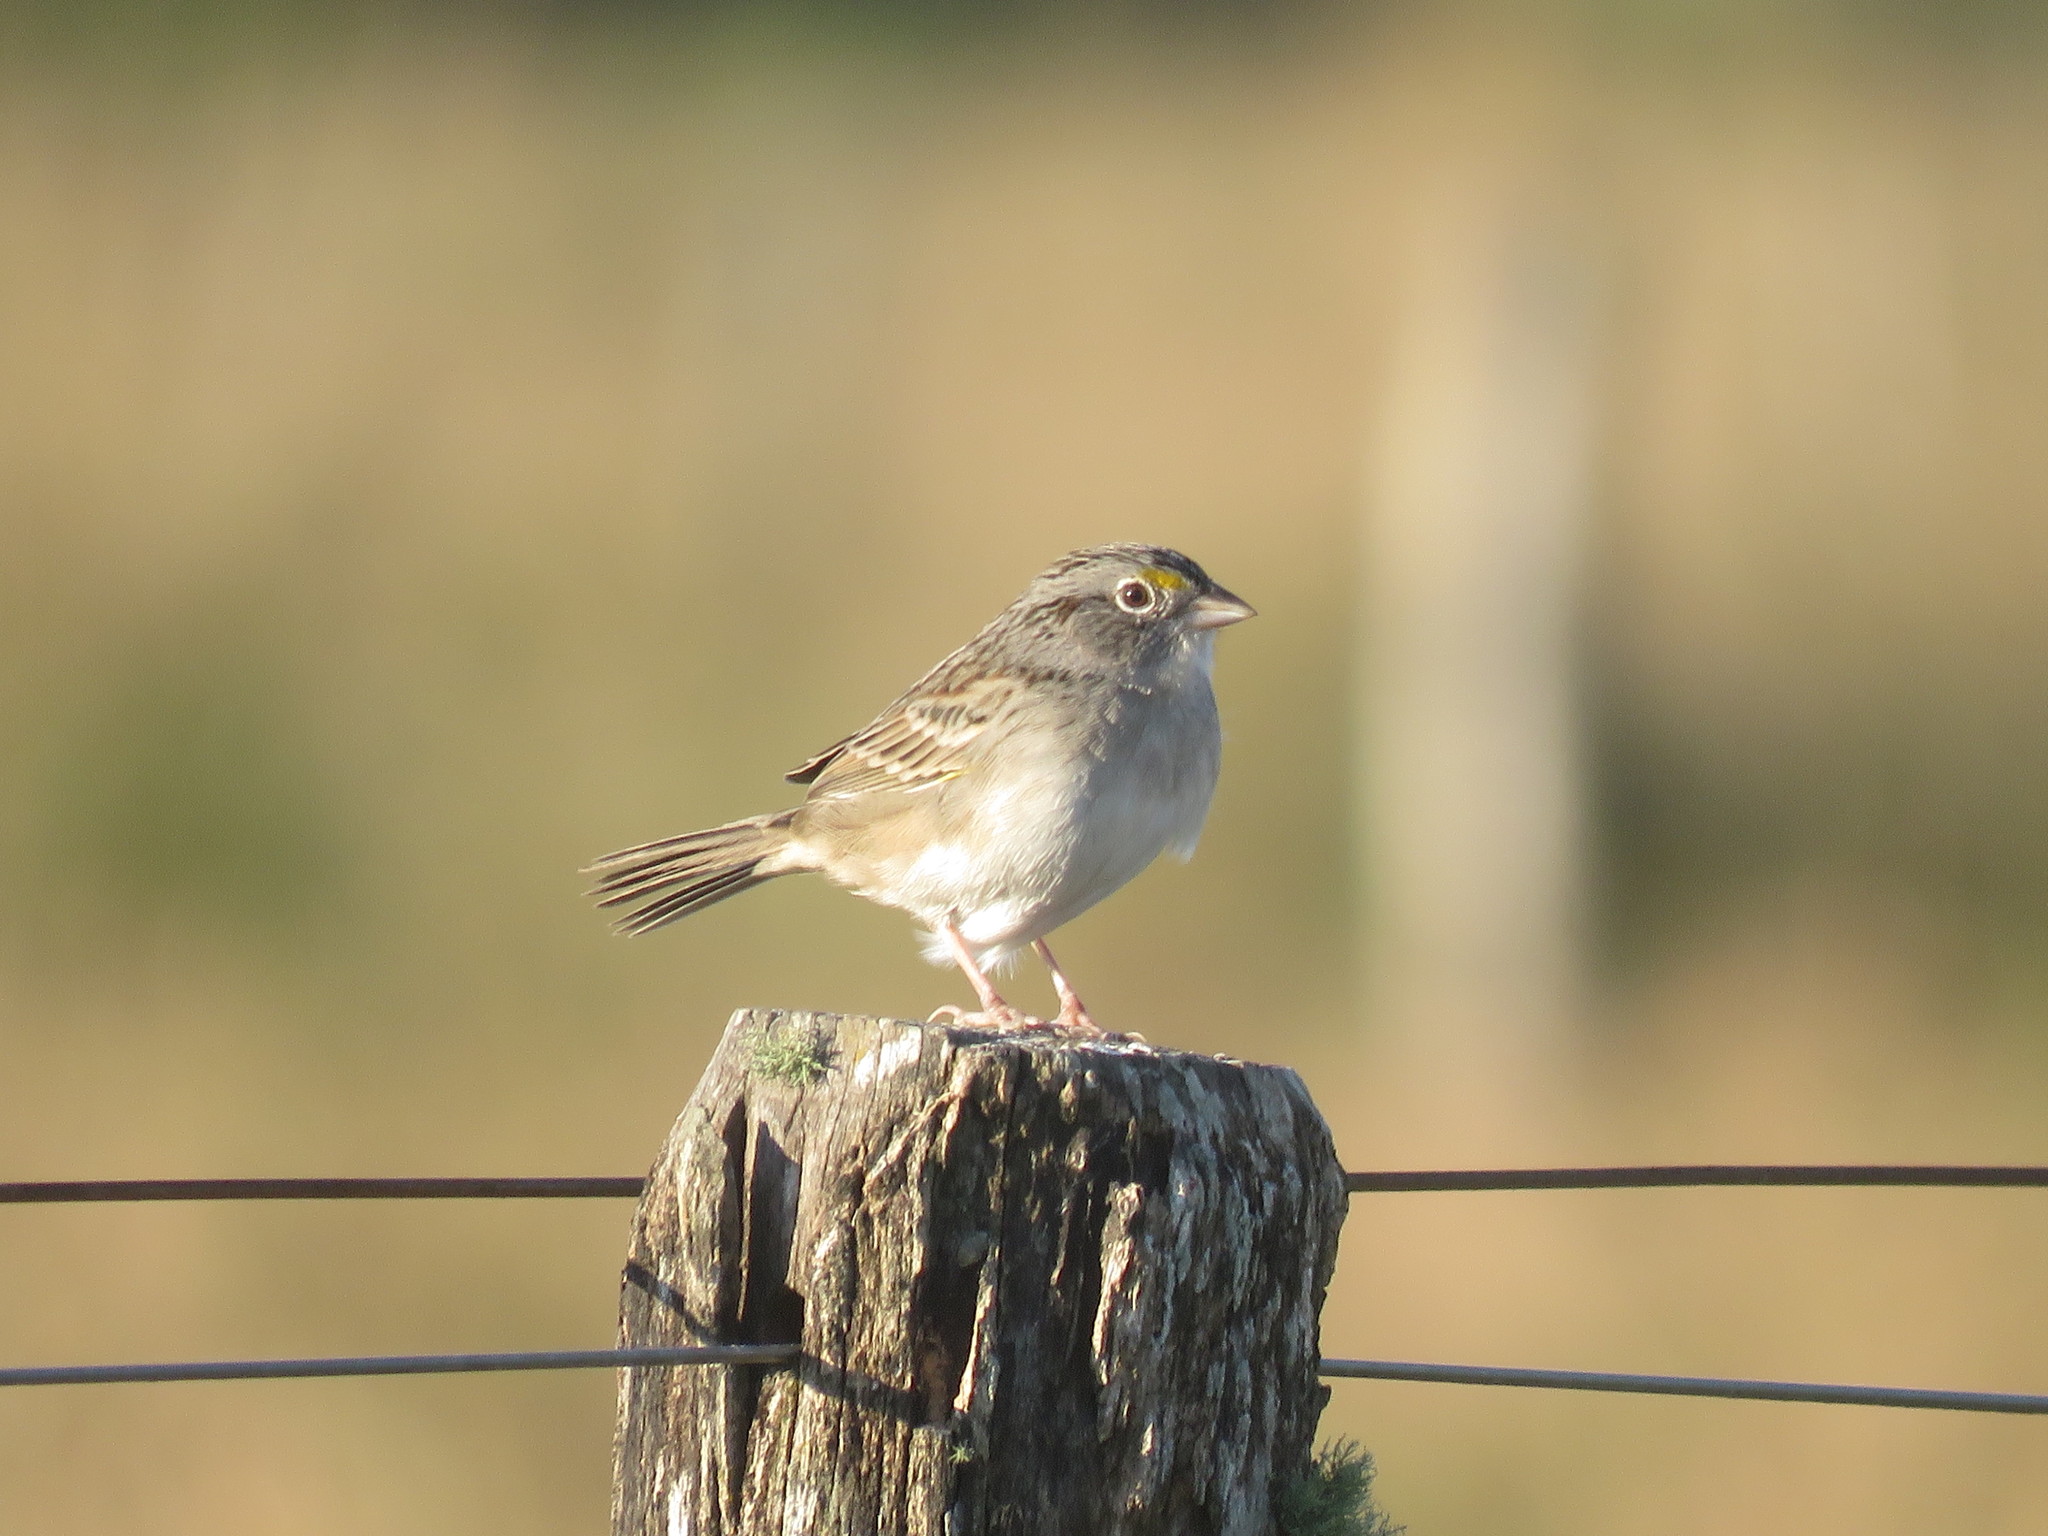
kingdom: Animalia
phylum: Chordata
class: Aves
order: Passeriformes
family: Passerellidae
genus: Ammodramus
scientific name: Ammodramus humeralis
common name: Grassland sparrow
